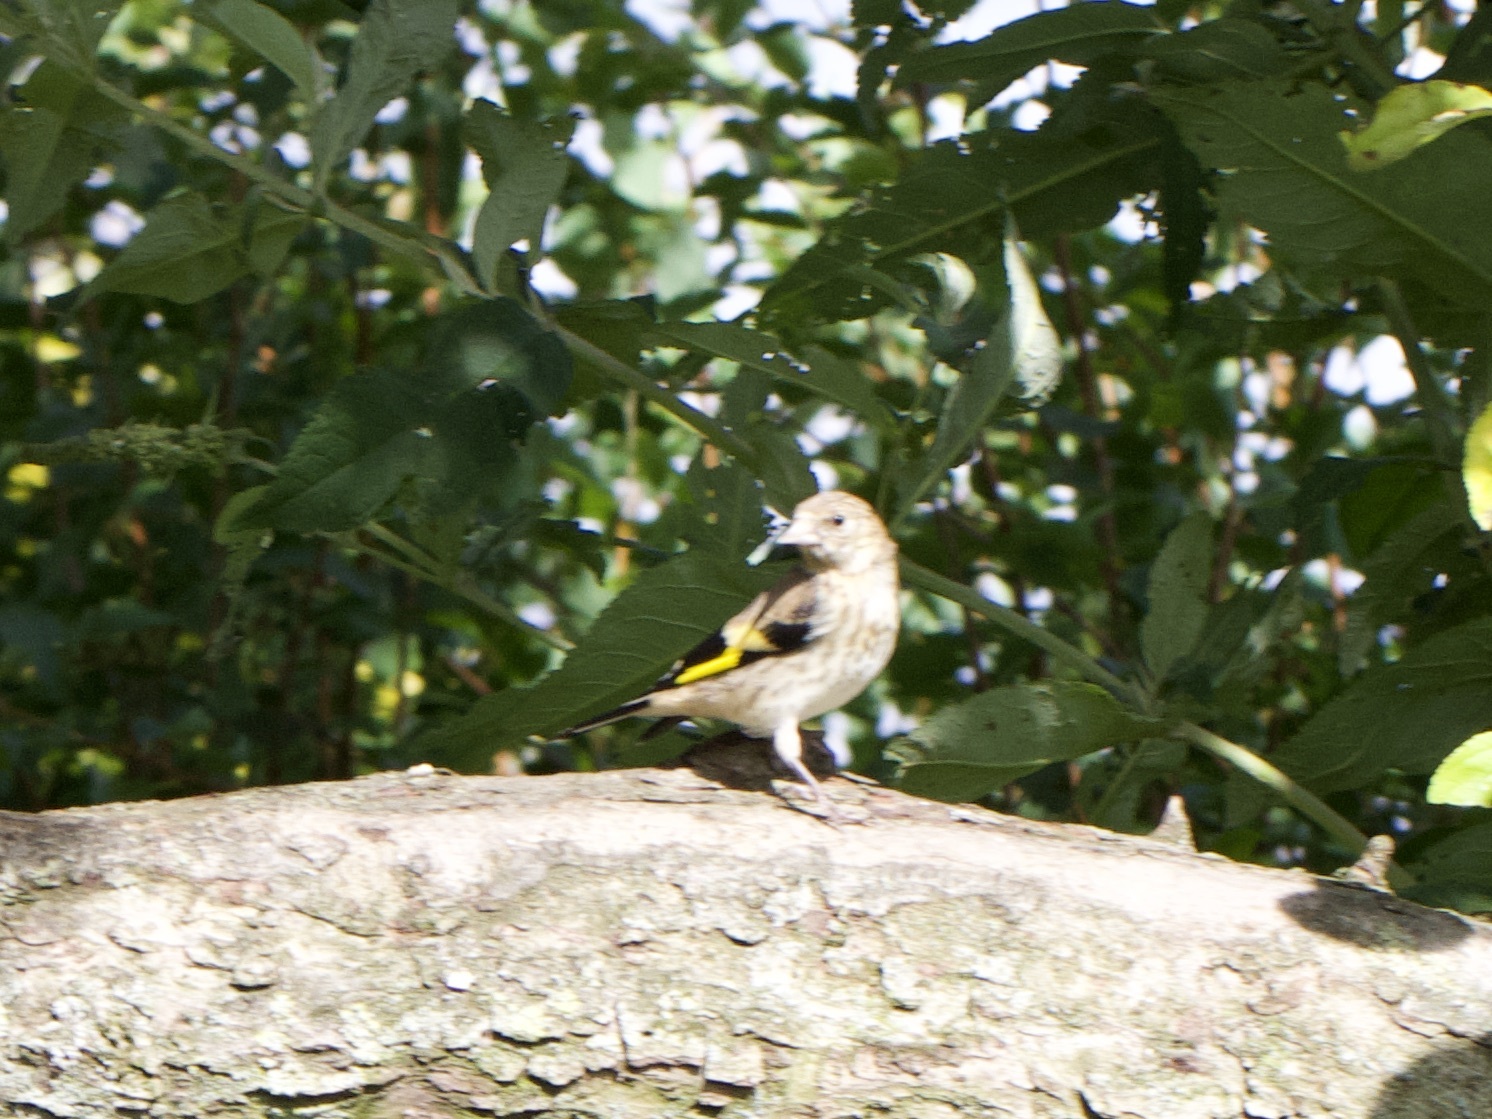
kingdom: Animalia
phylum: Chordata
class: Aves
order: Passeriformes
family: Fringillidae
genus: Carduelis
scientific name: Carduelis carduelis
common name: European goldfinch
